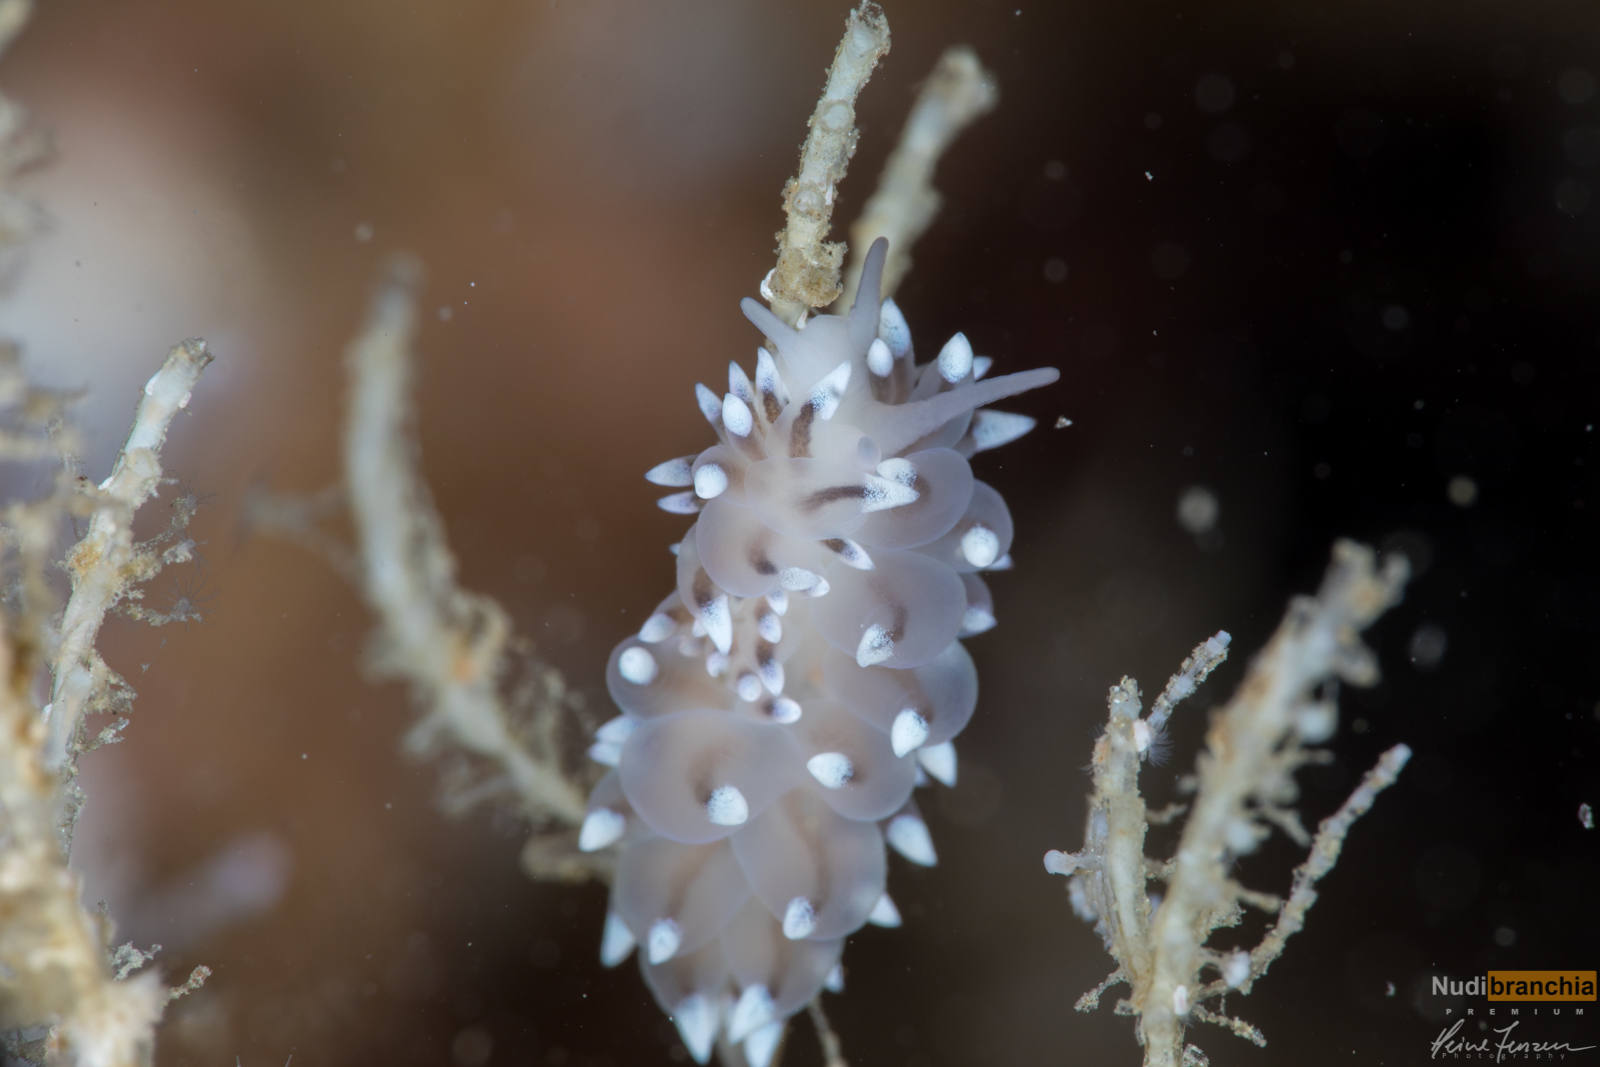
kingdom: Animalia
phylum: Mollusca
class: Gastropoda
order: Nudibranchia
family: Eubranchidae
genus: Eubranchus
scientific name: Eubranchus tricolor
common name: Painted balloon aeolis
